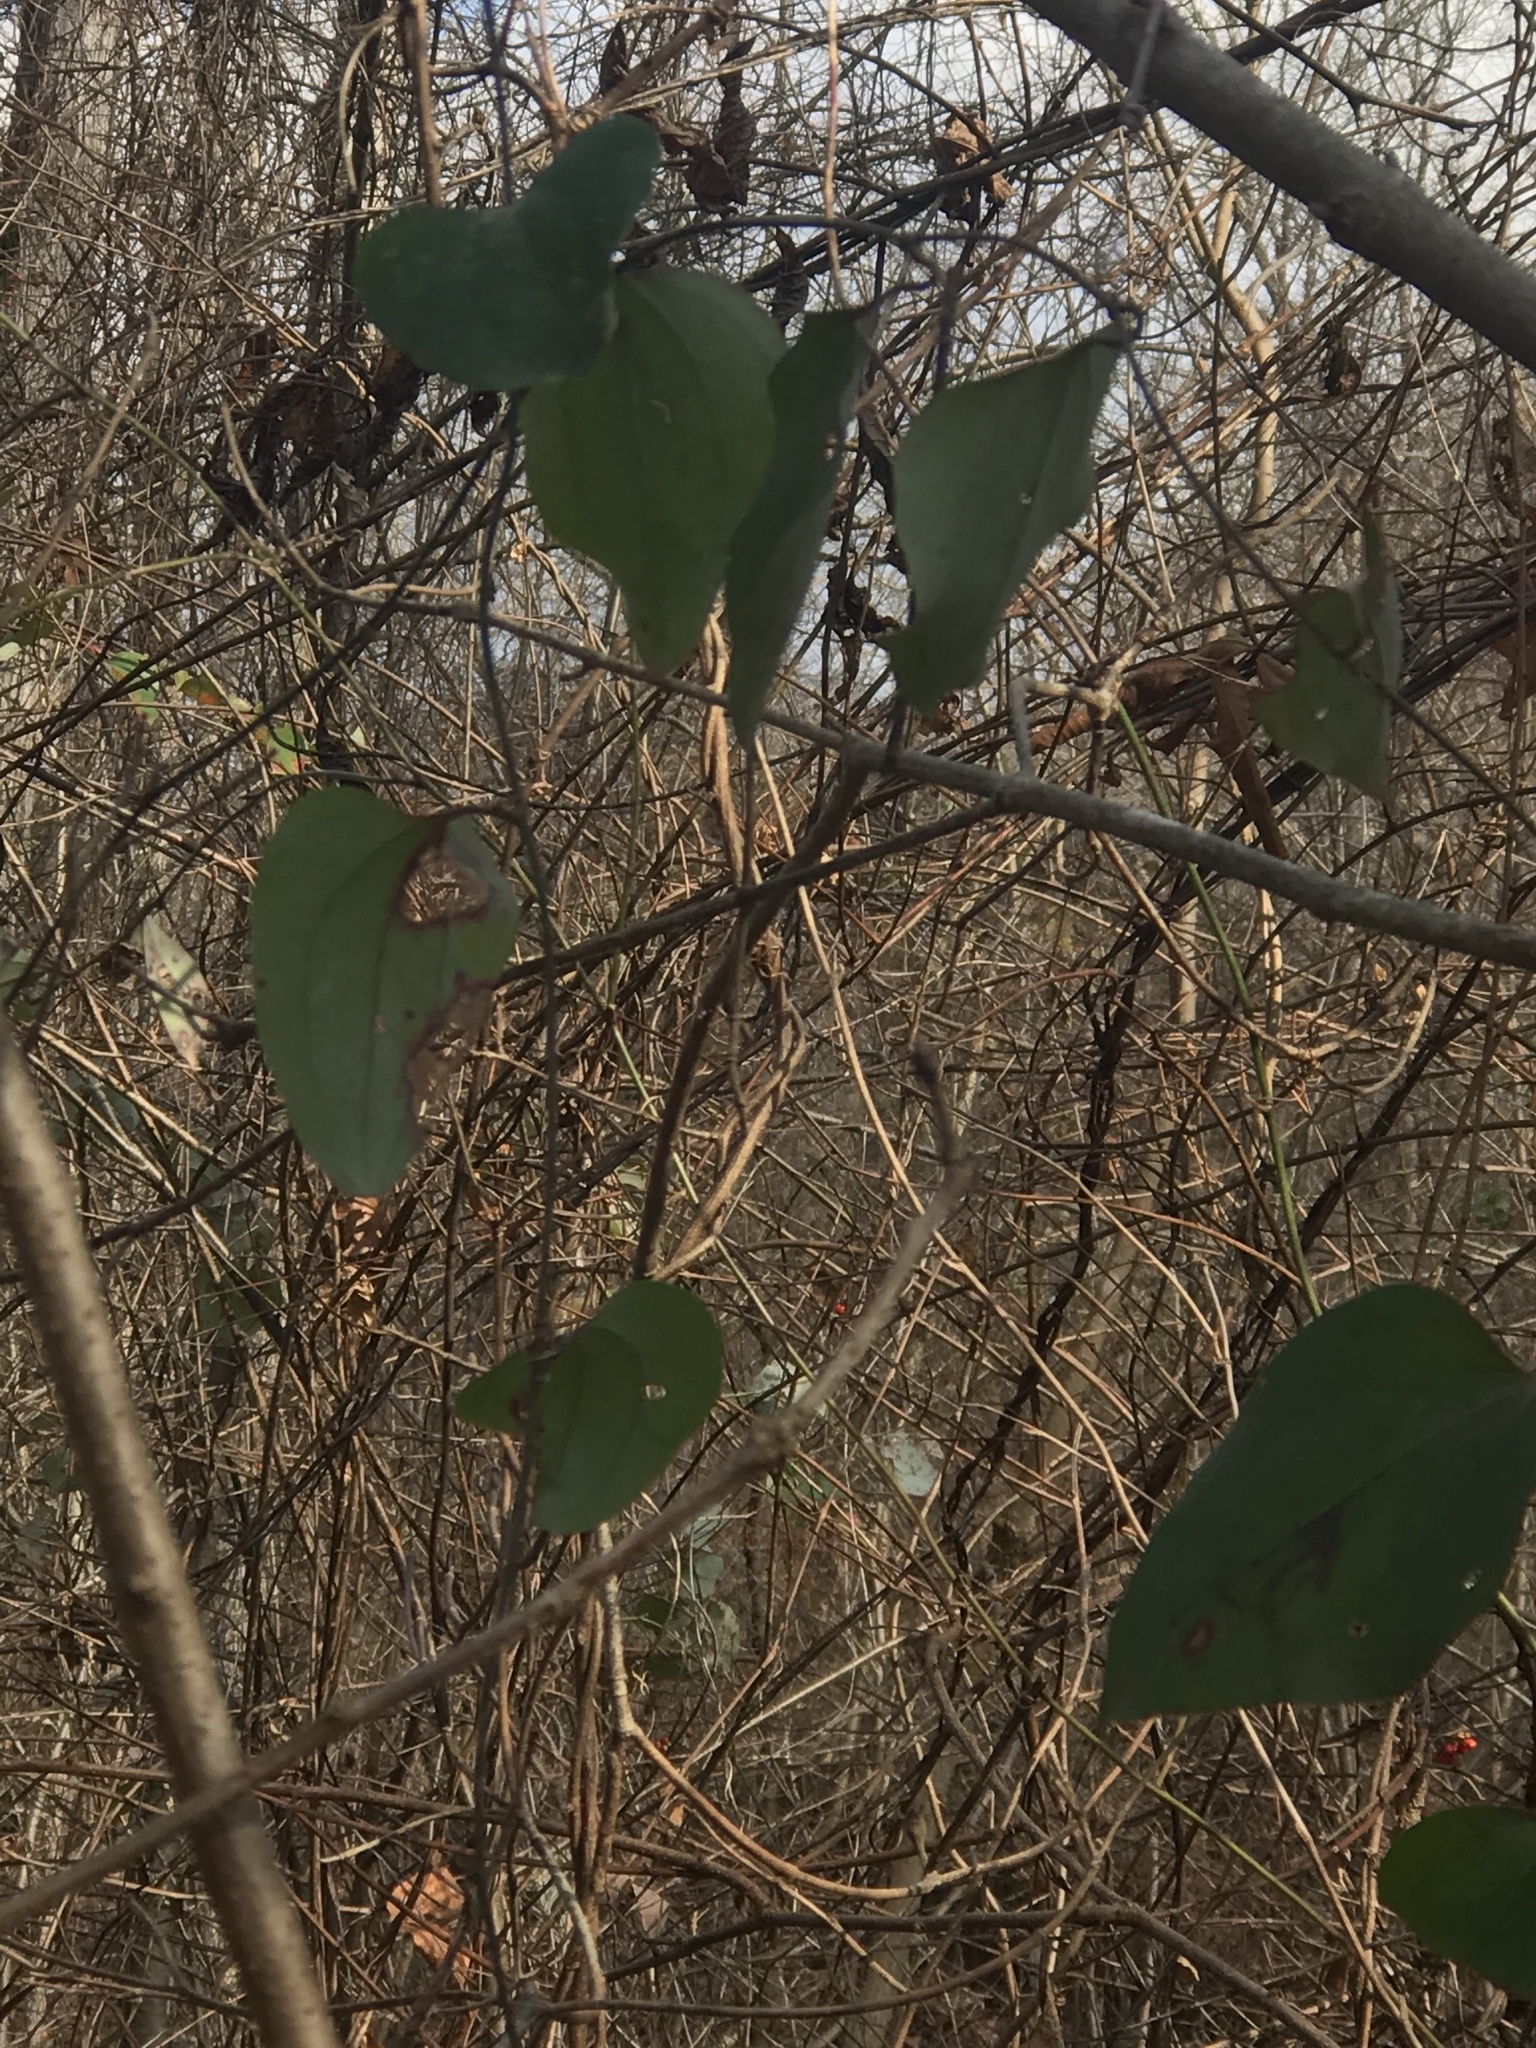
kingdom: Plantae
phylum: Tracheophyta
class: Liliopsida
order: Liliales
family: Smilacaceae
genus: Smilax
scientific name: Smilax glauca
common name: Cat greenbrier
